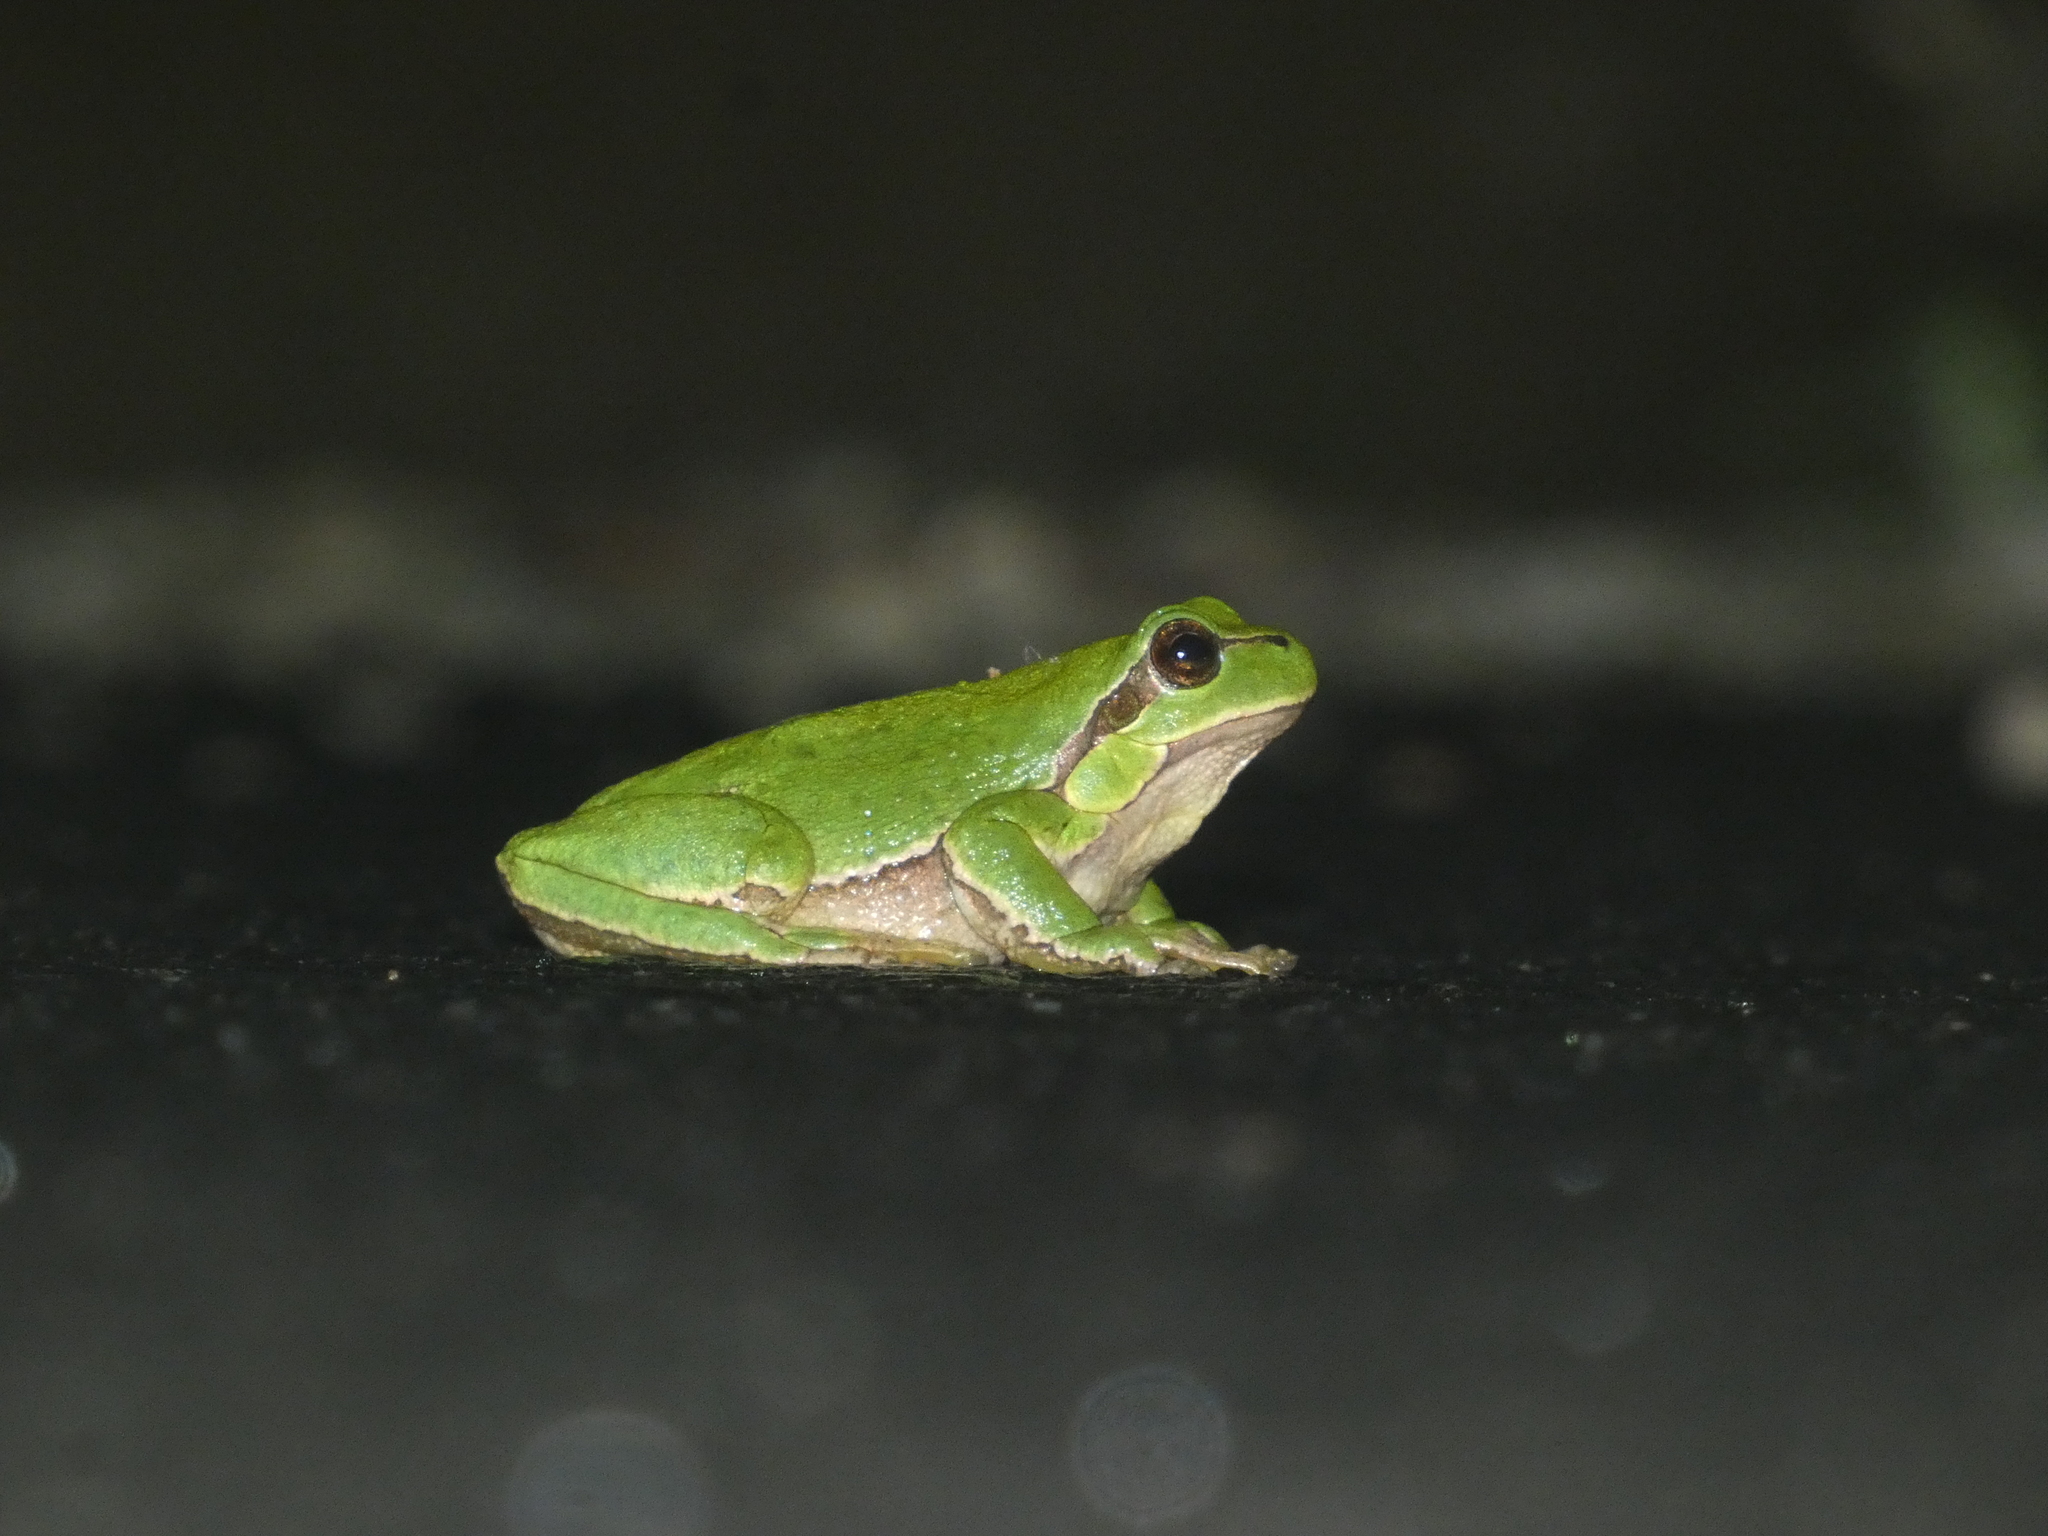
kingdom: Animalia
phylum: Chordata
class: Amphibia
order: Anura
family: Hylidae
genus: Hyla
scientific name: Hyla arborea
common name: Common tree frog
